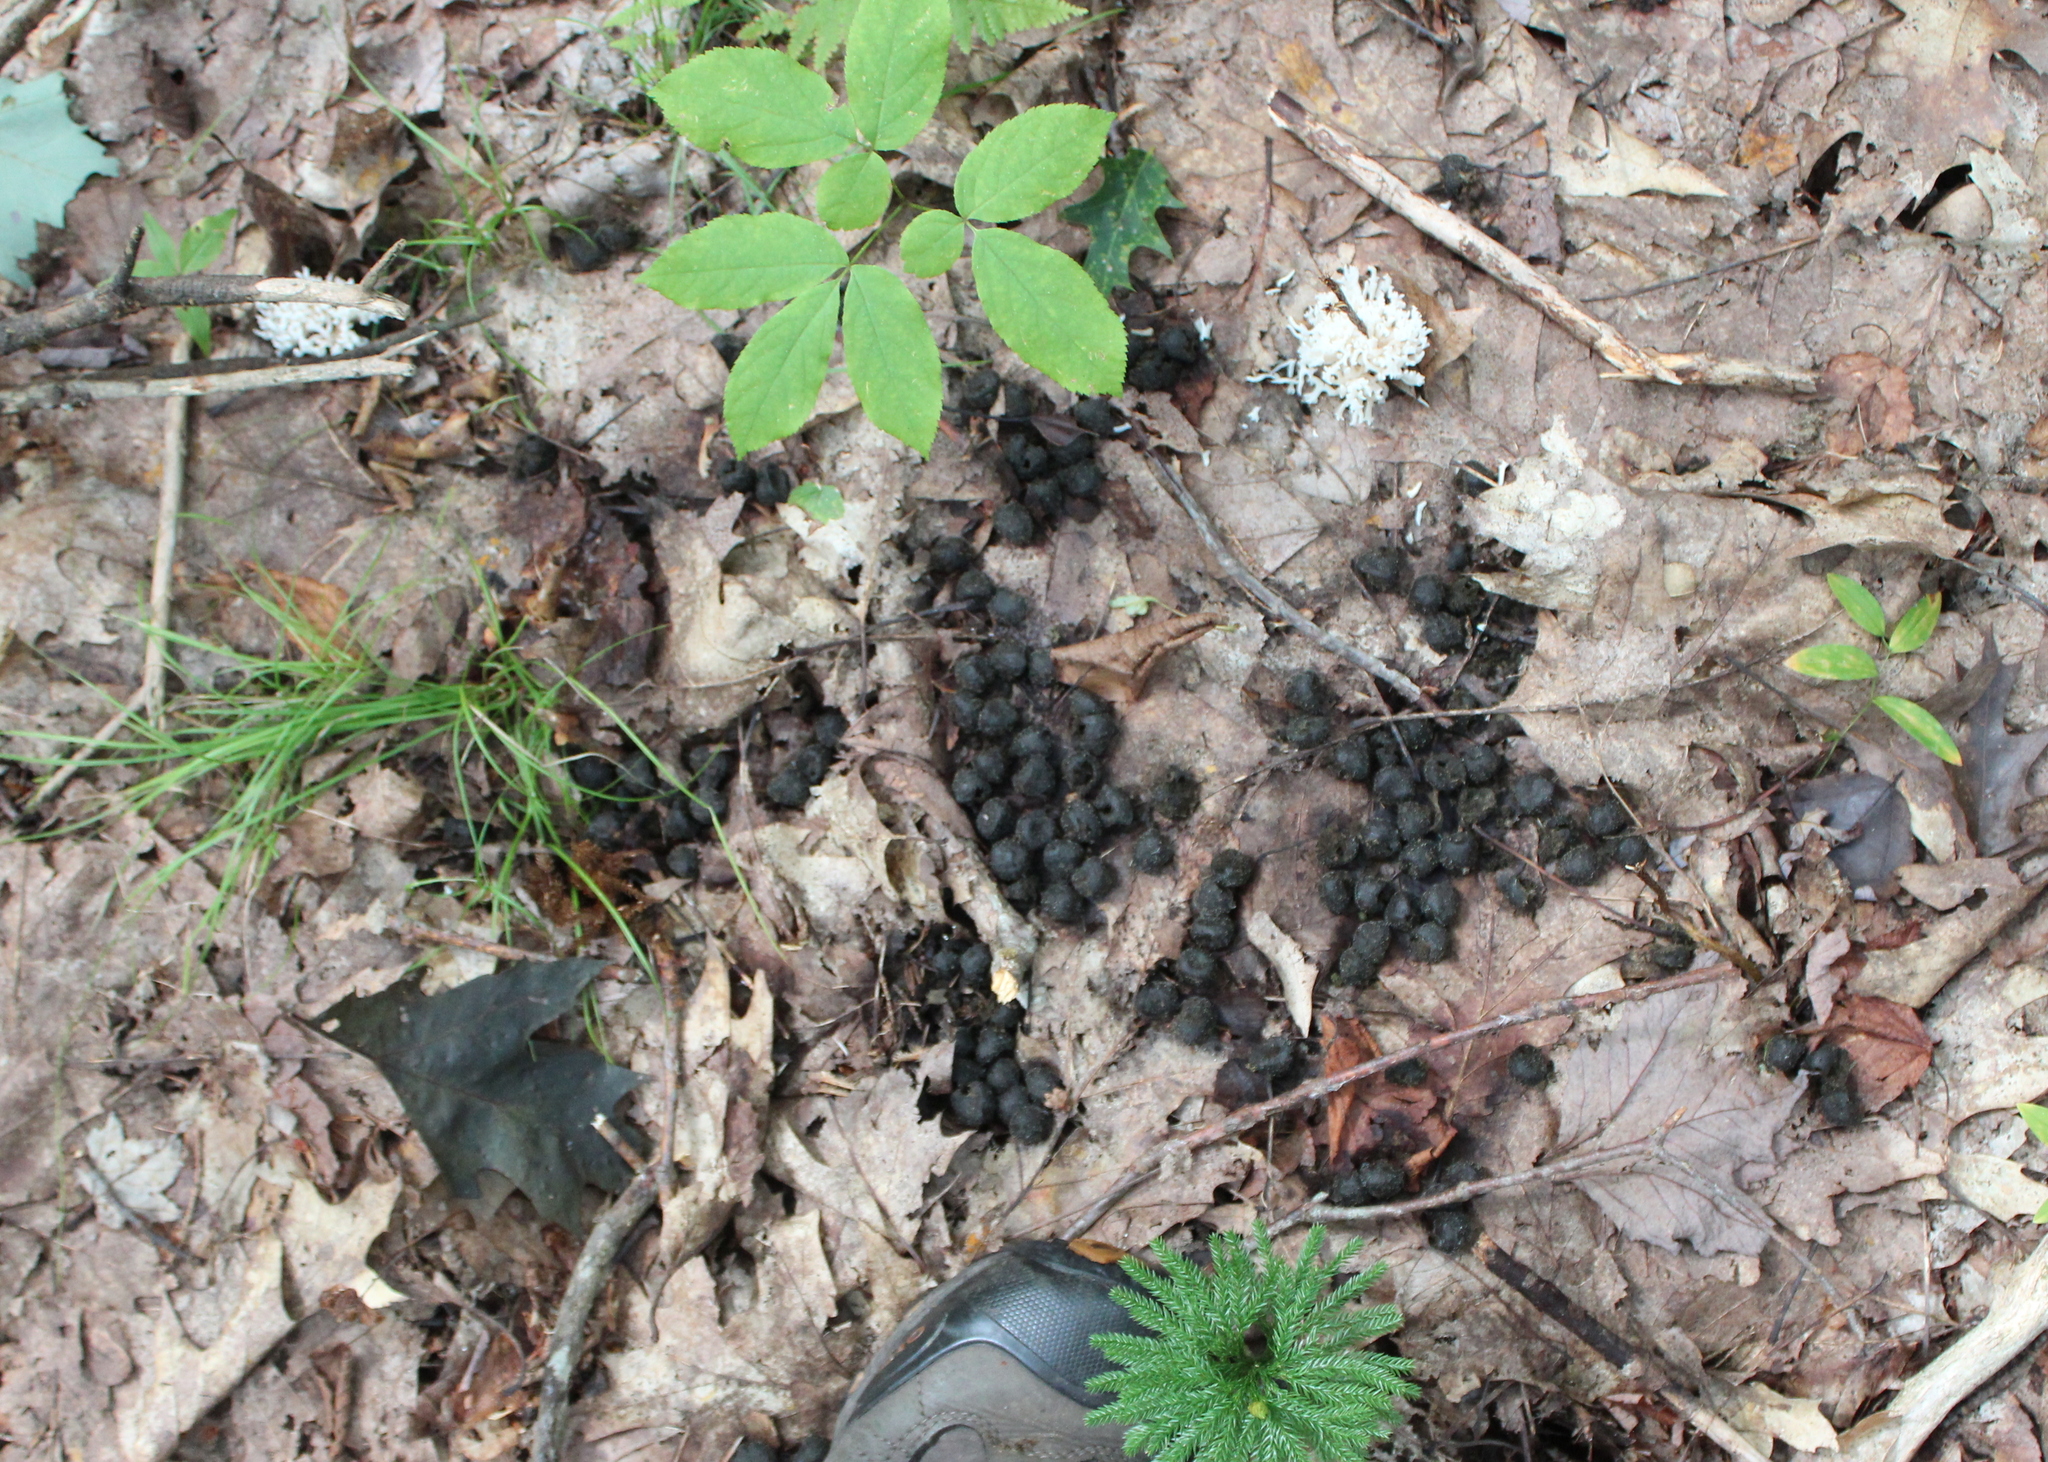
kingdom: Animalia
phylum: Chordata
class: Mammalia
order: Artiodactyla
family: Cervidae
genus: Odocoileus
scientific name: Odocoileus virginianus
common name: White-tailed deer
